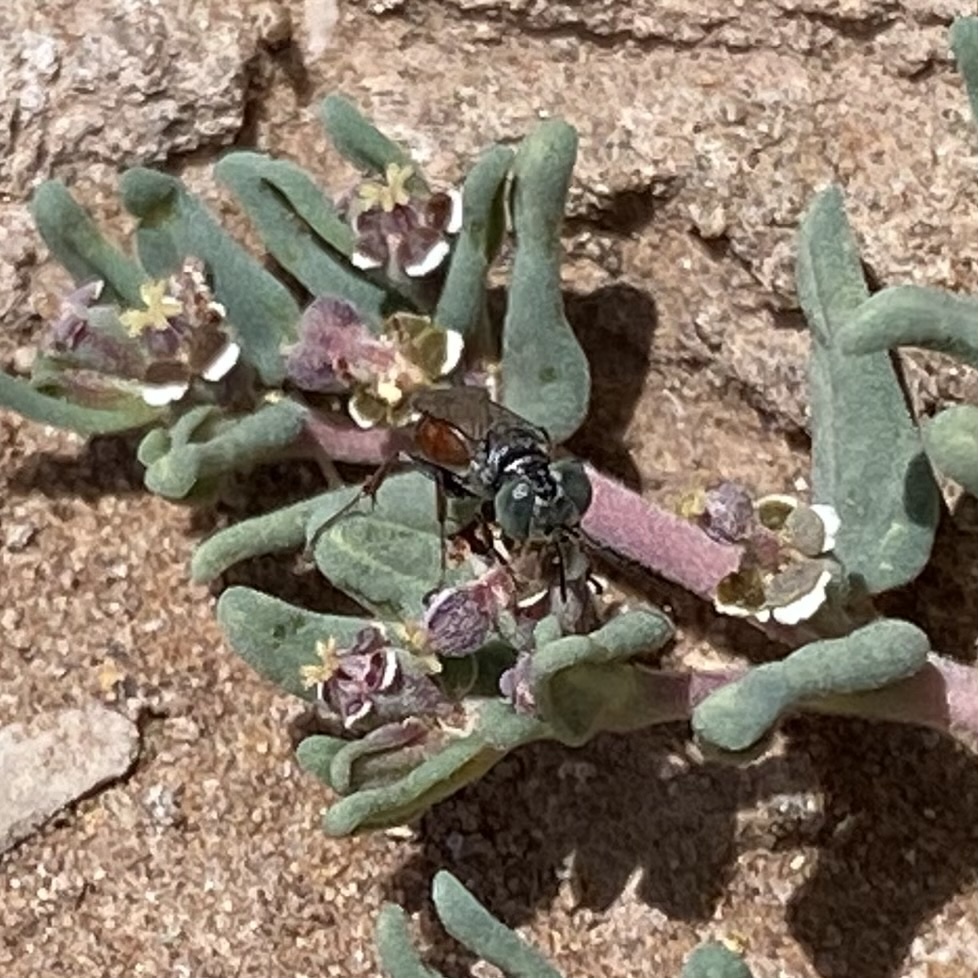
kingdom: Animalia
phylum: Arthropoda
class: Insecta
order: Hymenoptera
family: Crabronidae
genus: Tachysphex
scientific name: Tachysphex
